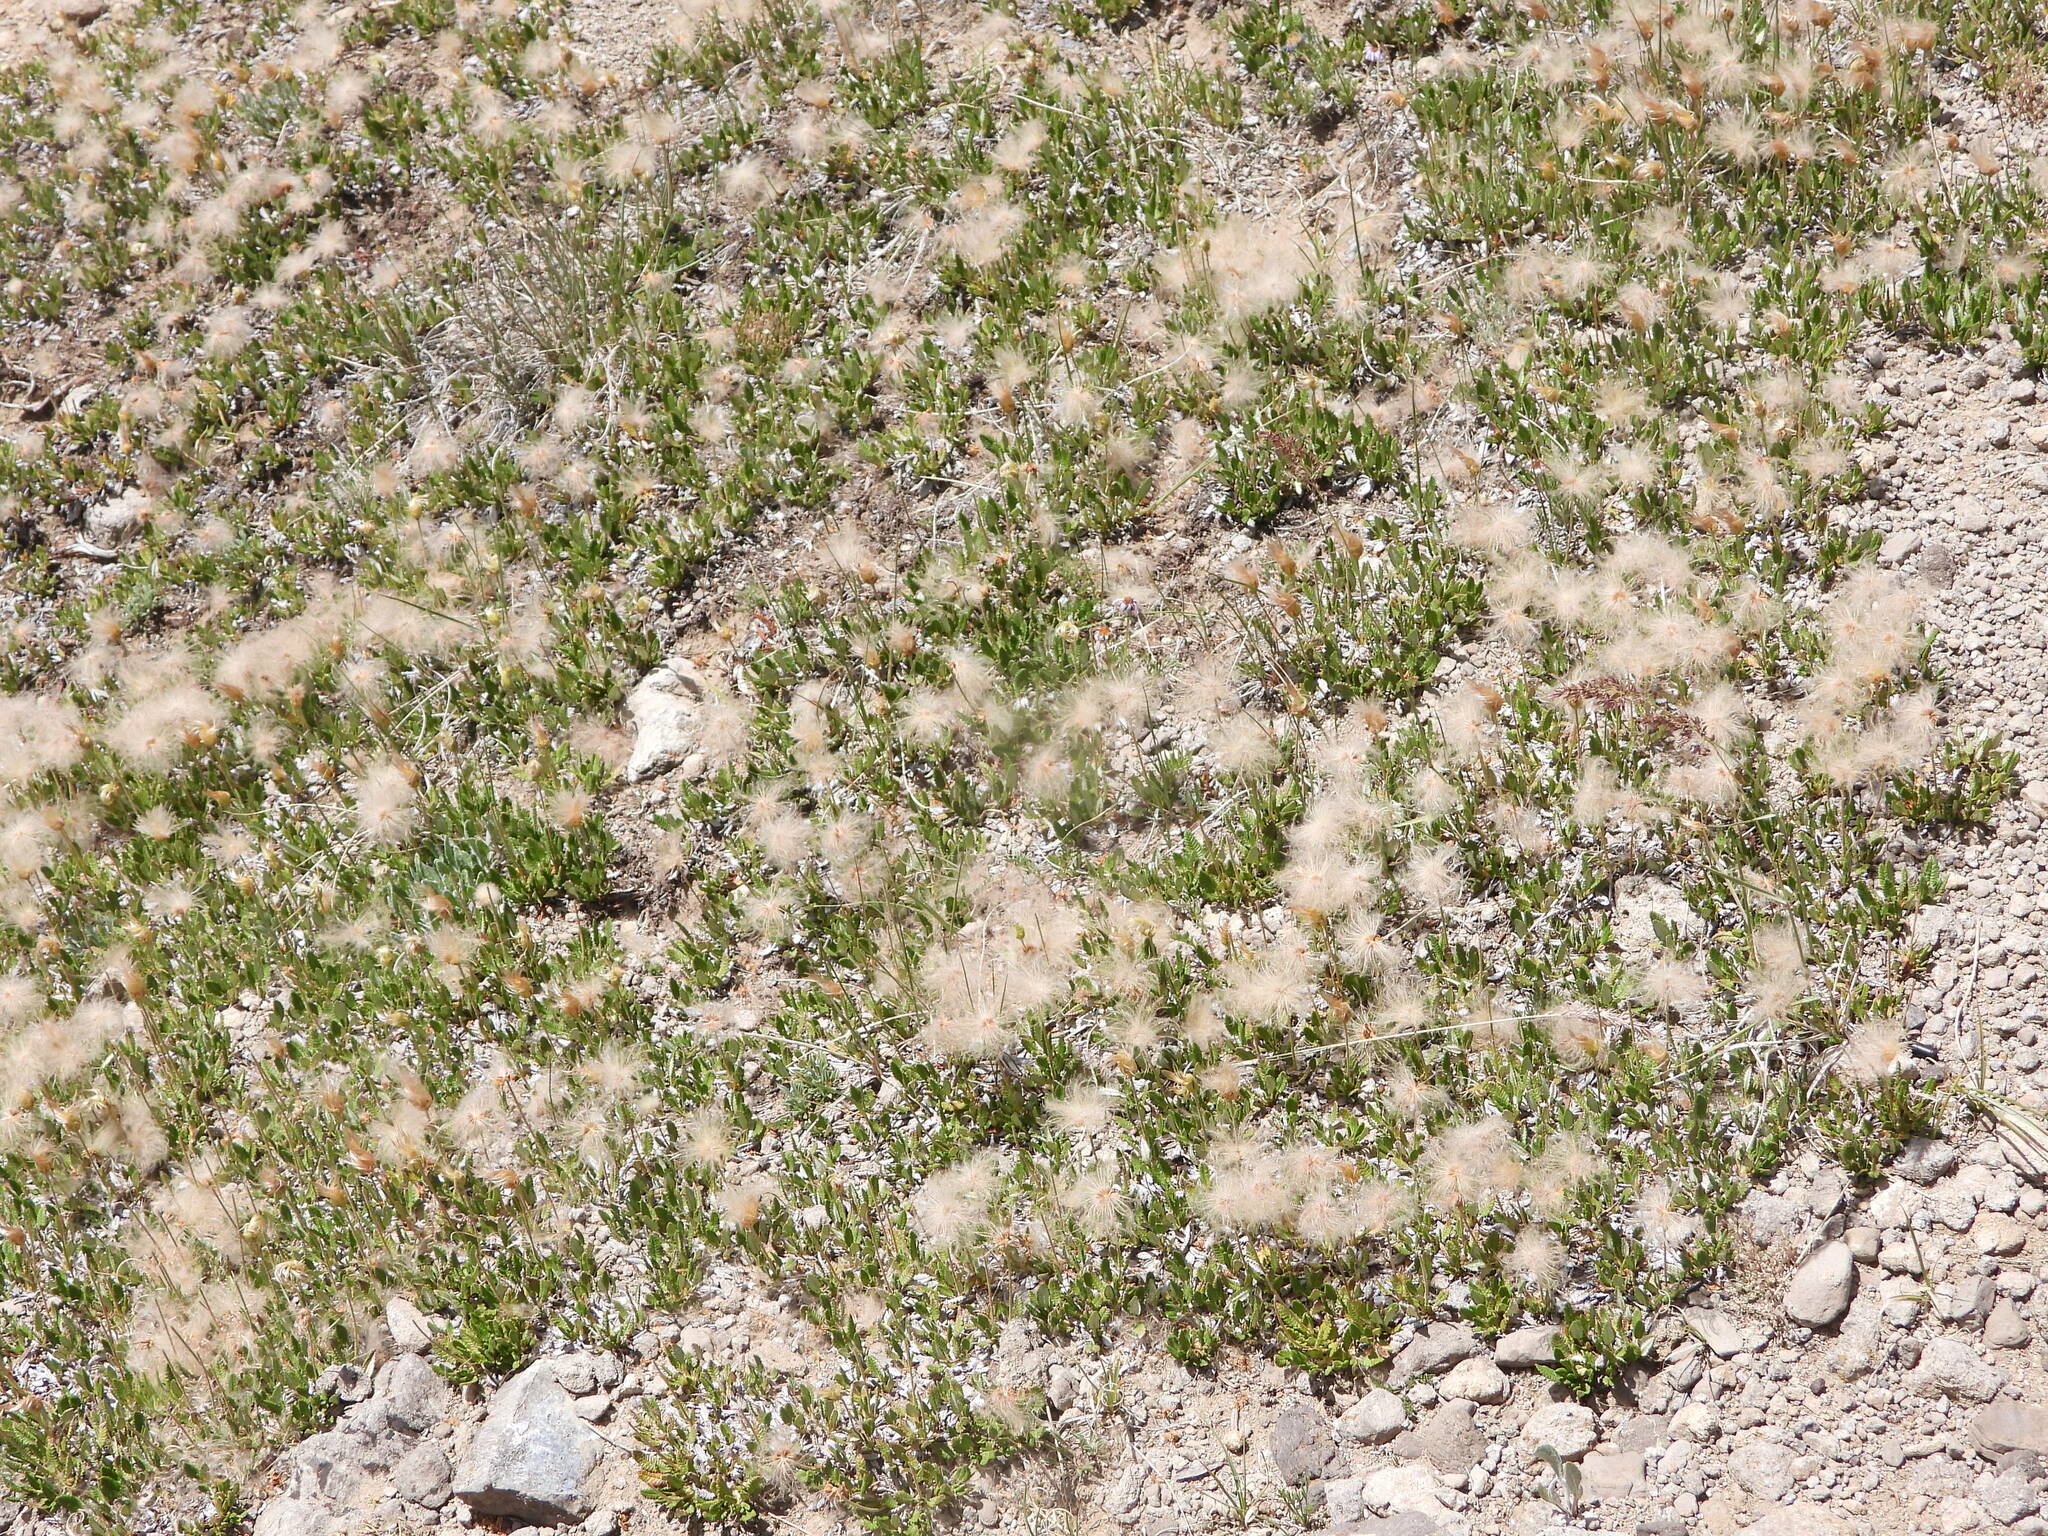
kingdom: Plantae
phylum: Tracheophyta
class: Magnoliopsida
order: Rosales
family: Rosaceae
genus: Dryas
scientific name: Dryas octopetala
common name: Eight-petal mountain-avens
